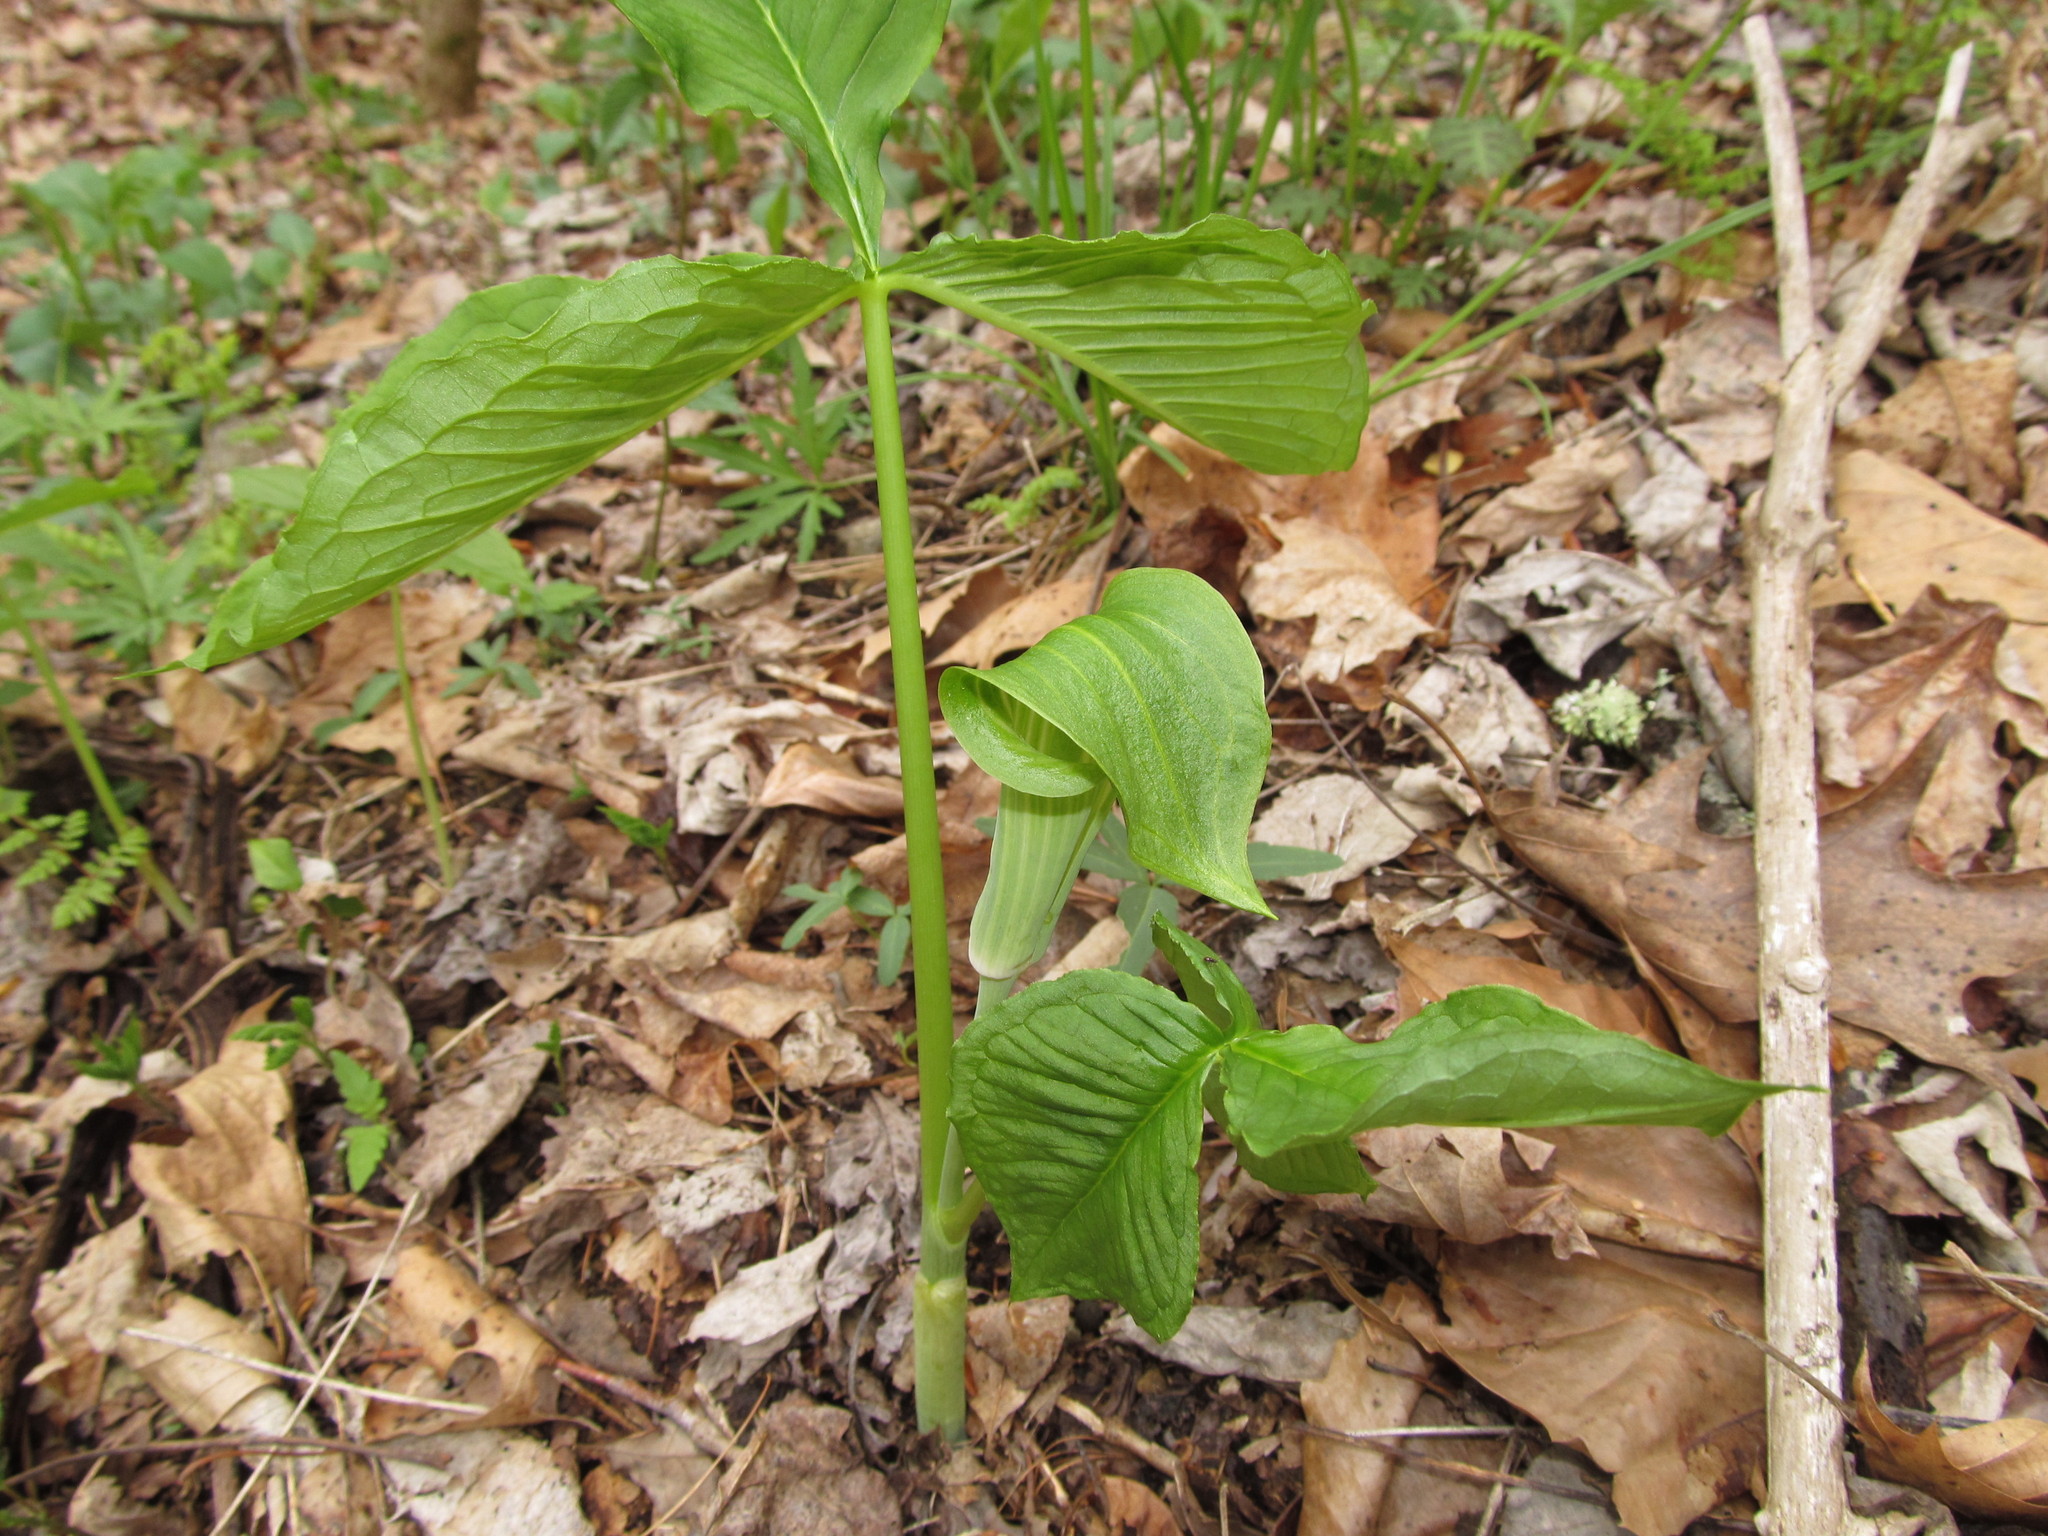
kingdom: Plantae
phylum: Tracheophyta
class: Liliopsida
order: Alismatales
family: Araceae
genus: Arisaema
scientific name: Arisaema triphyllum
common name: Jack-in-the-pulpit
